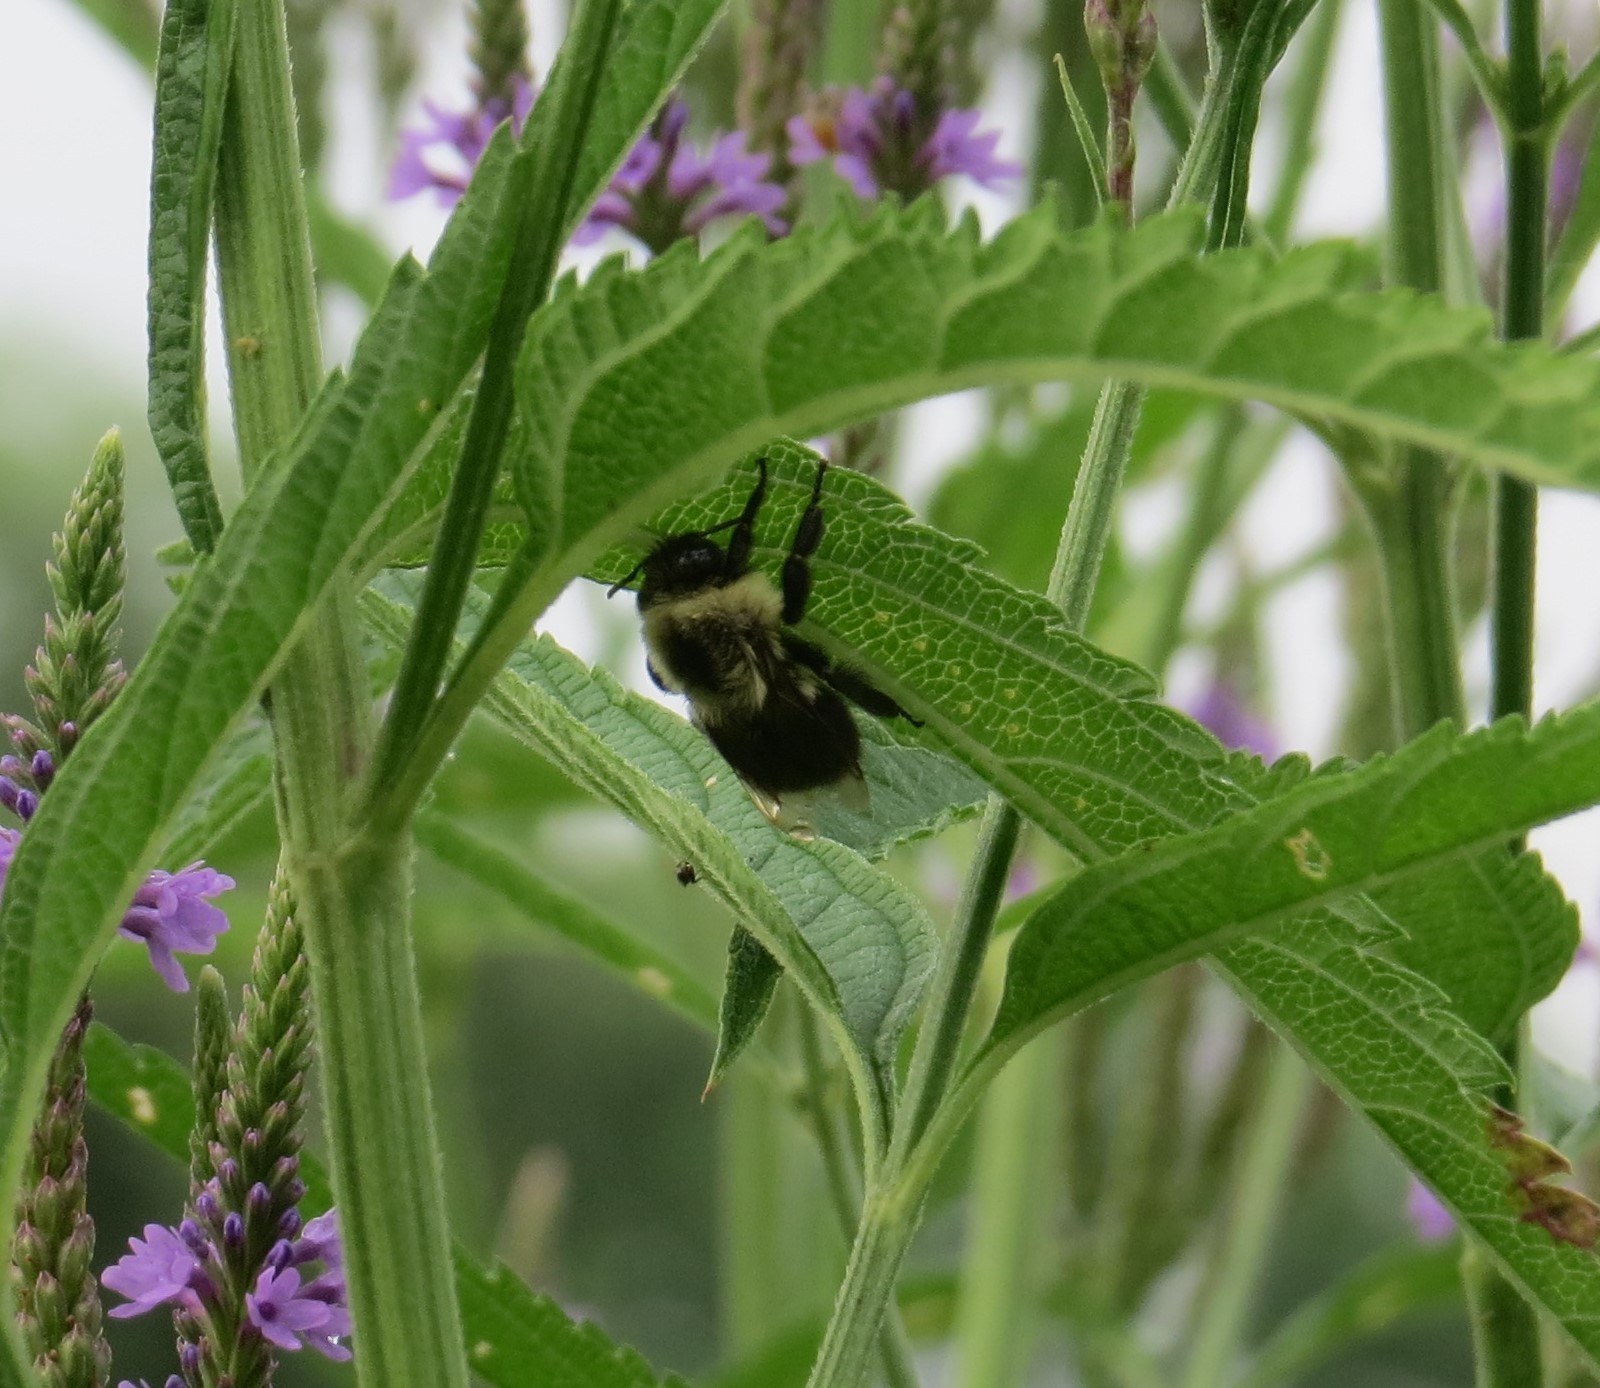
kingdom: Animalia
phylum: Arthropoda
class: Insecta
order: Hymenoptera
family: Apidae
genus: Bombus
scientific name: Bombus impatiens
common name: Common eastern bumble bee
